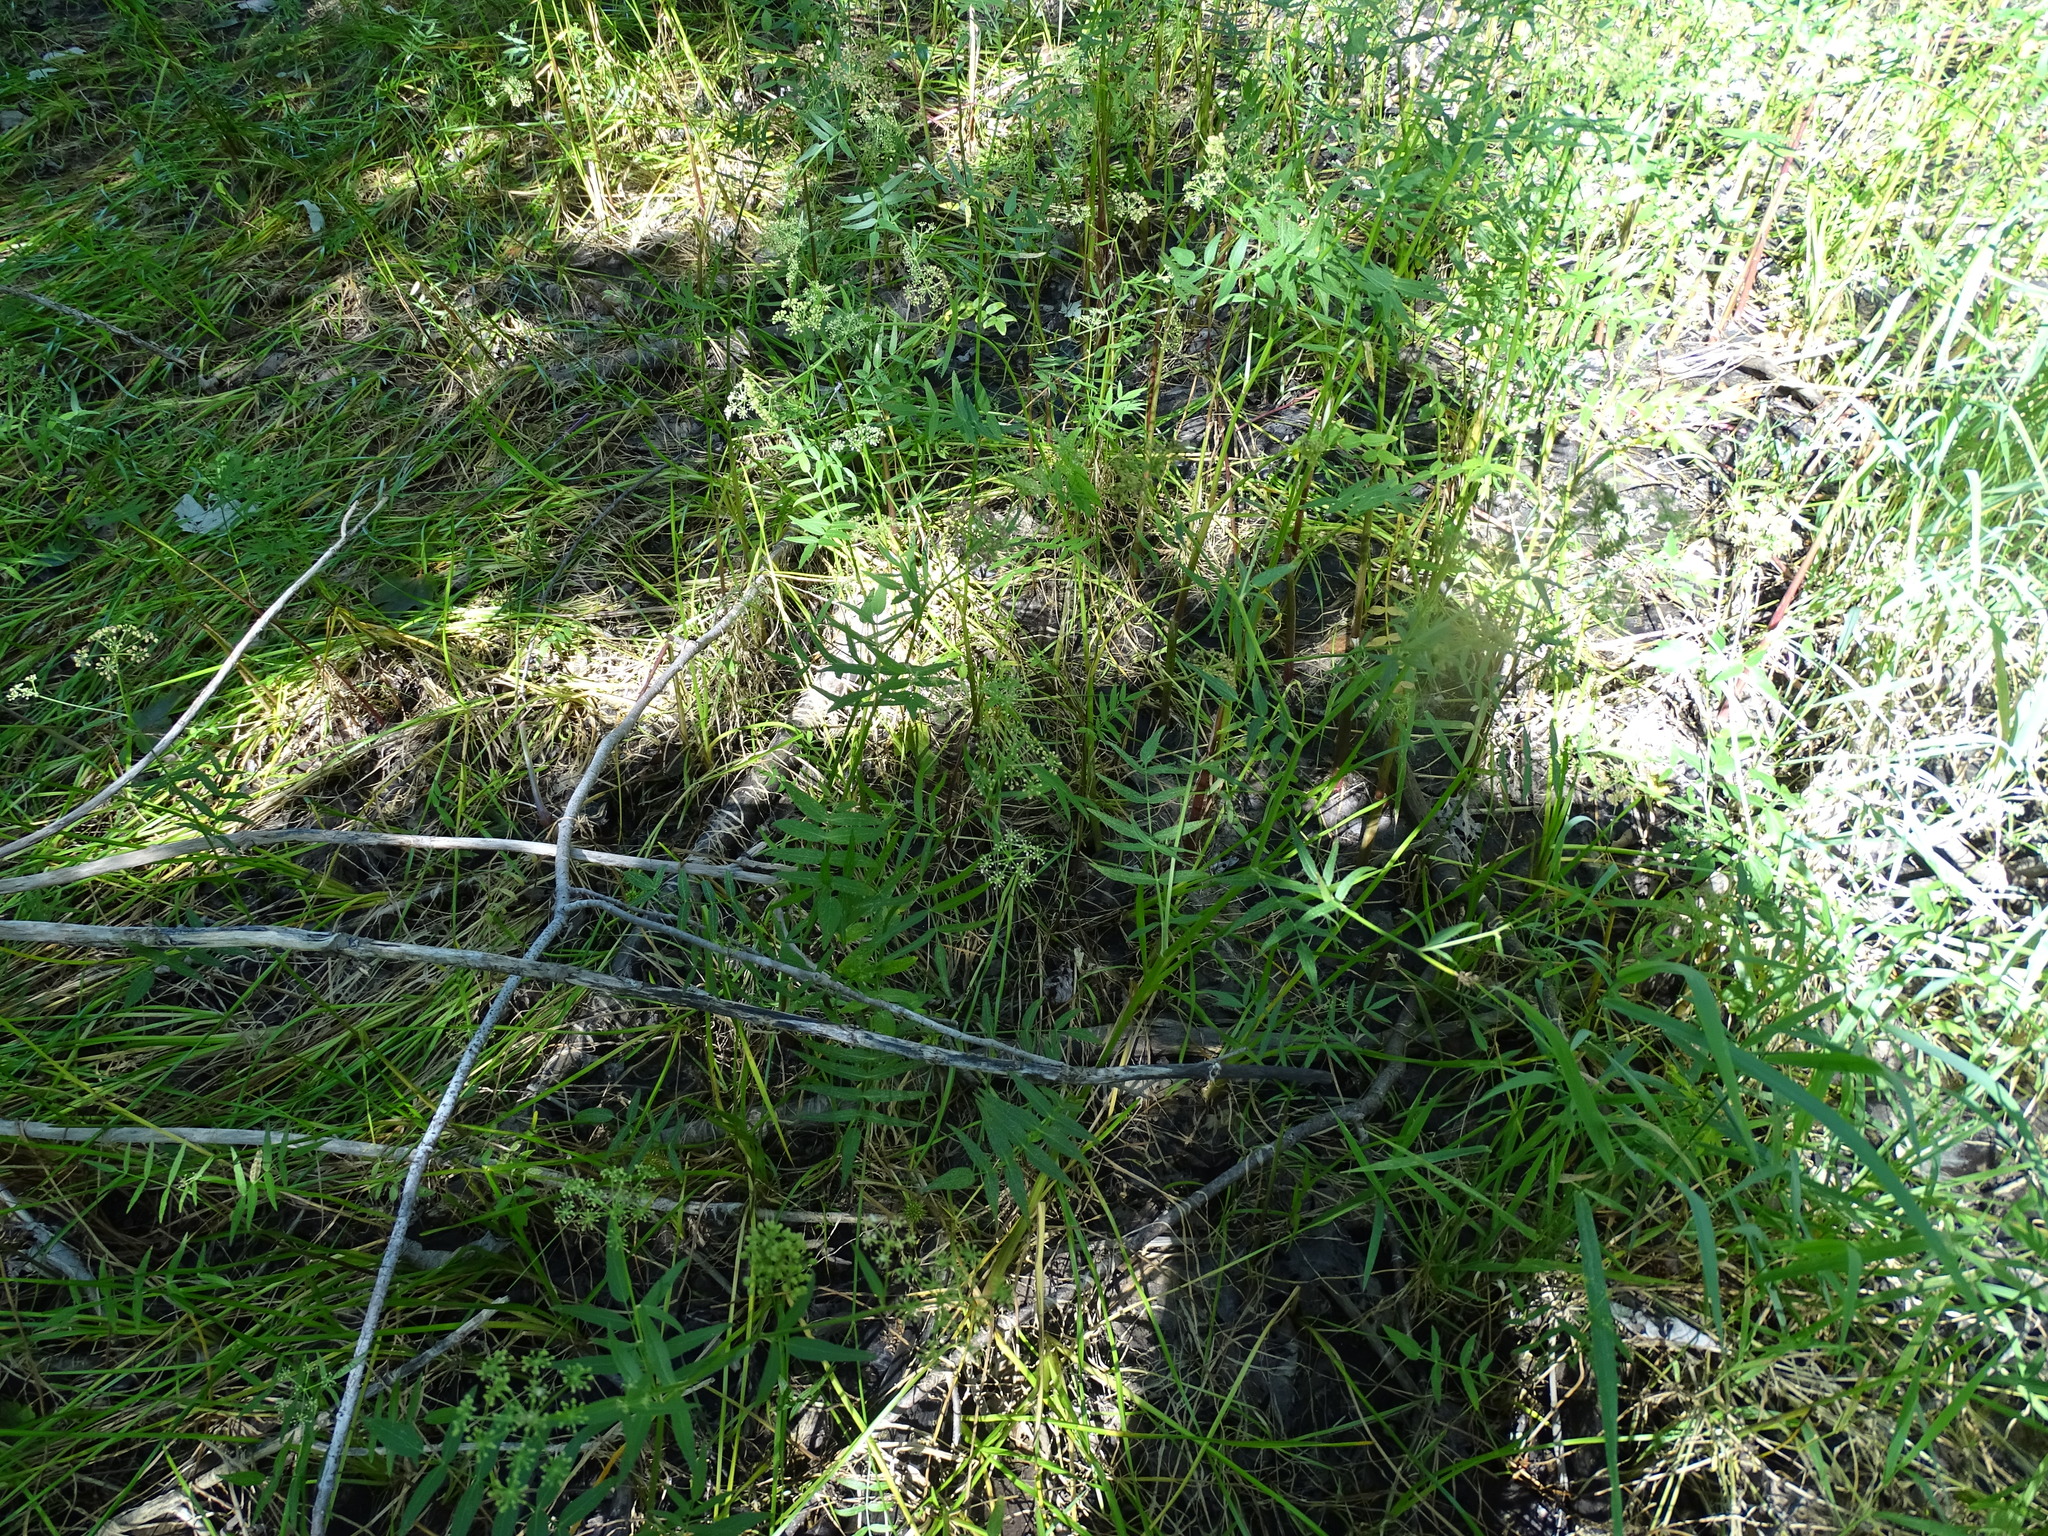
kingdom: Plantae
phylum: Tracheophyta
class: Magnoliopsida
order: Apiales
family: Apiaceae
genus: Sium
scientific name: Sium suave
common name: Hemlock water-parsnip
